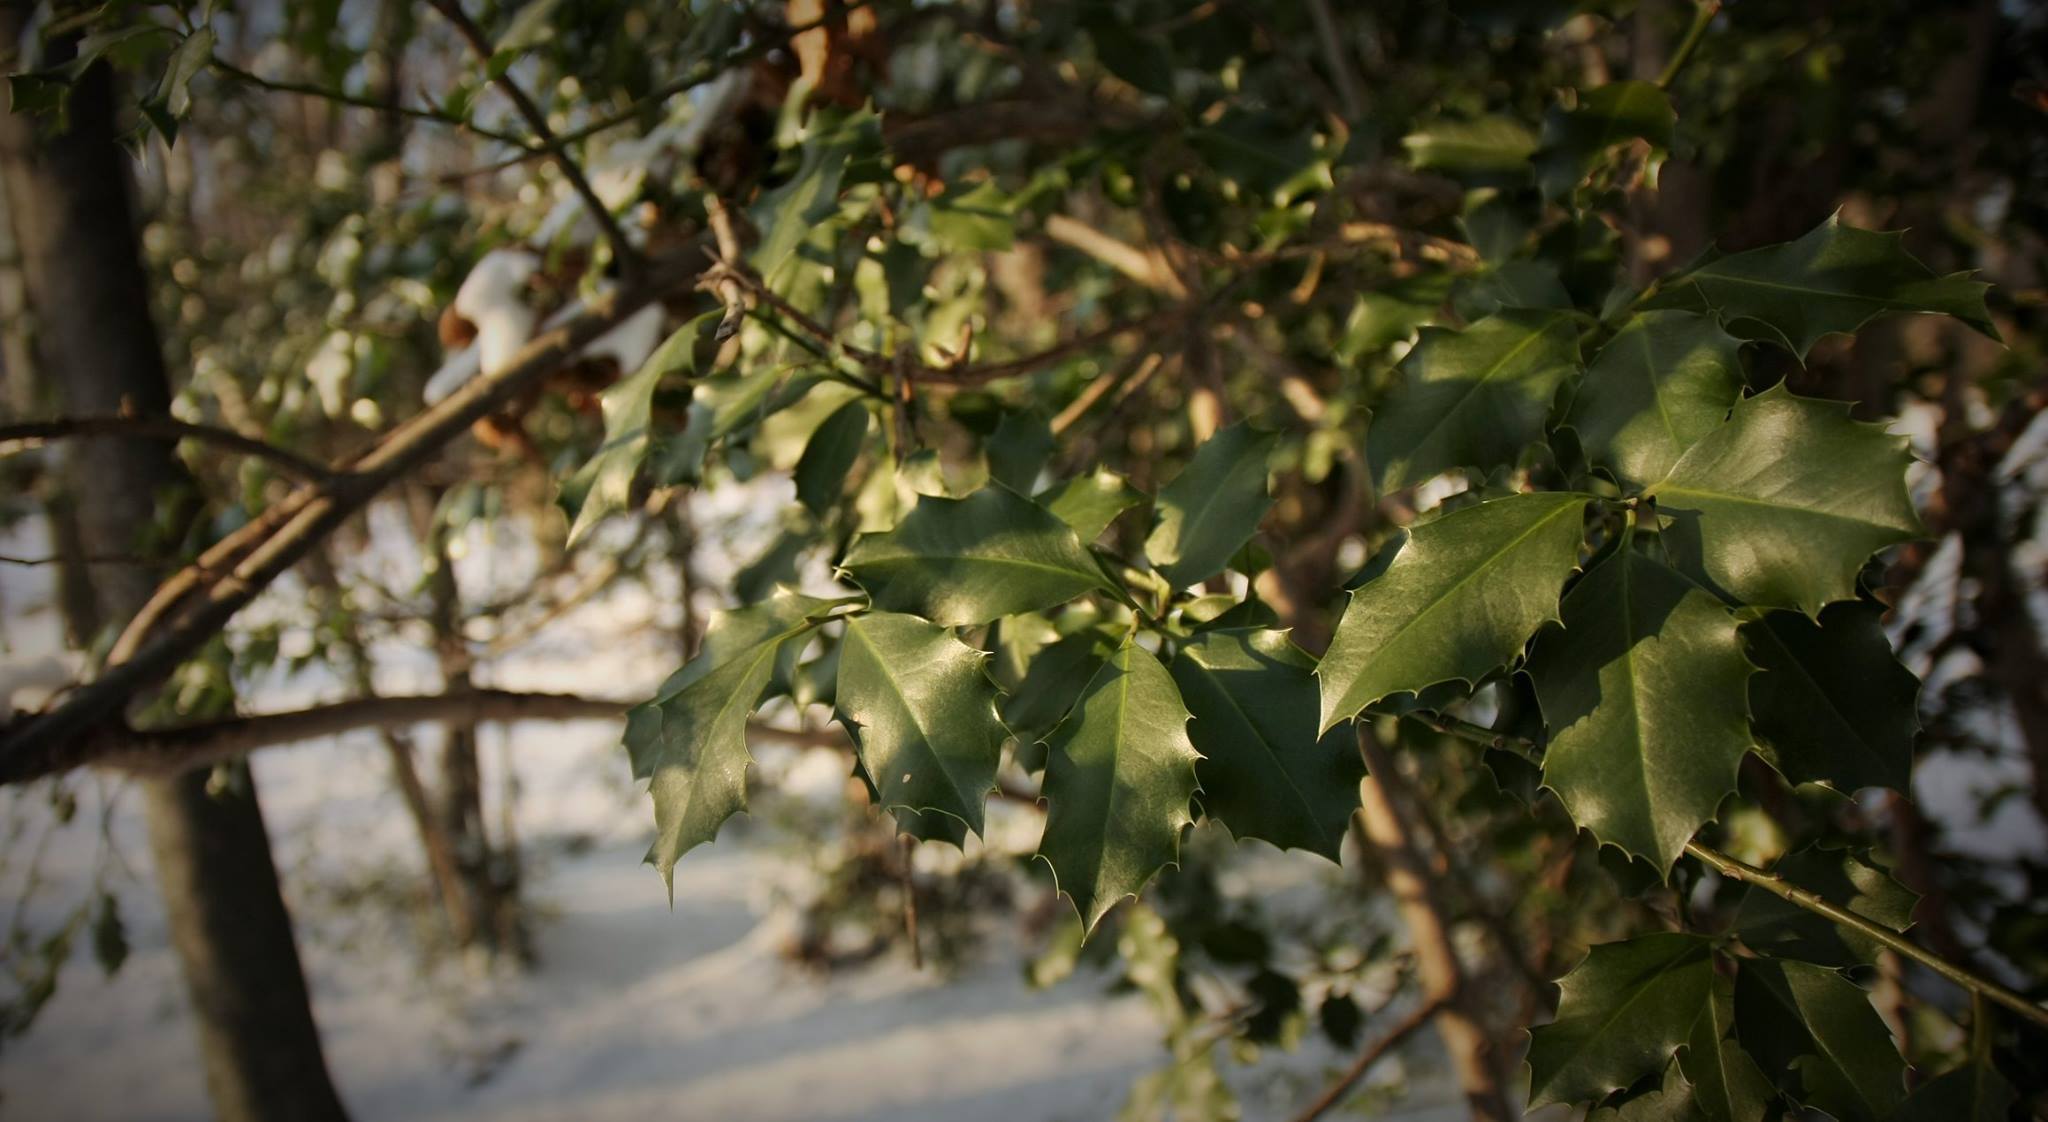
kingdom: Plantae
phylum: Tracheophyta
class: Magnoliopsida
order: Aquifoliales
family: Aquifoliaceae
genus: Ilex
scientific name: Ilex aquifolium
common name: English holly
